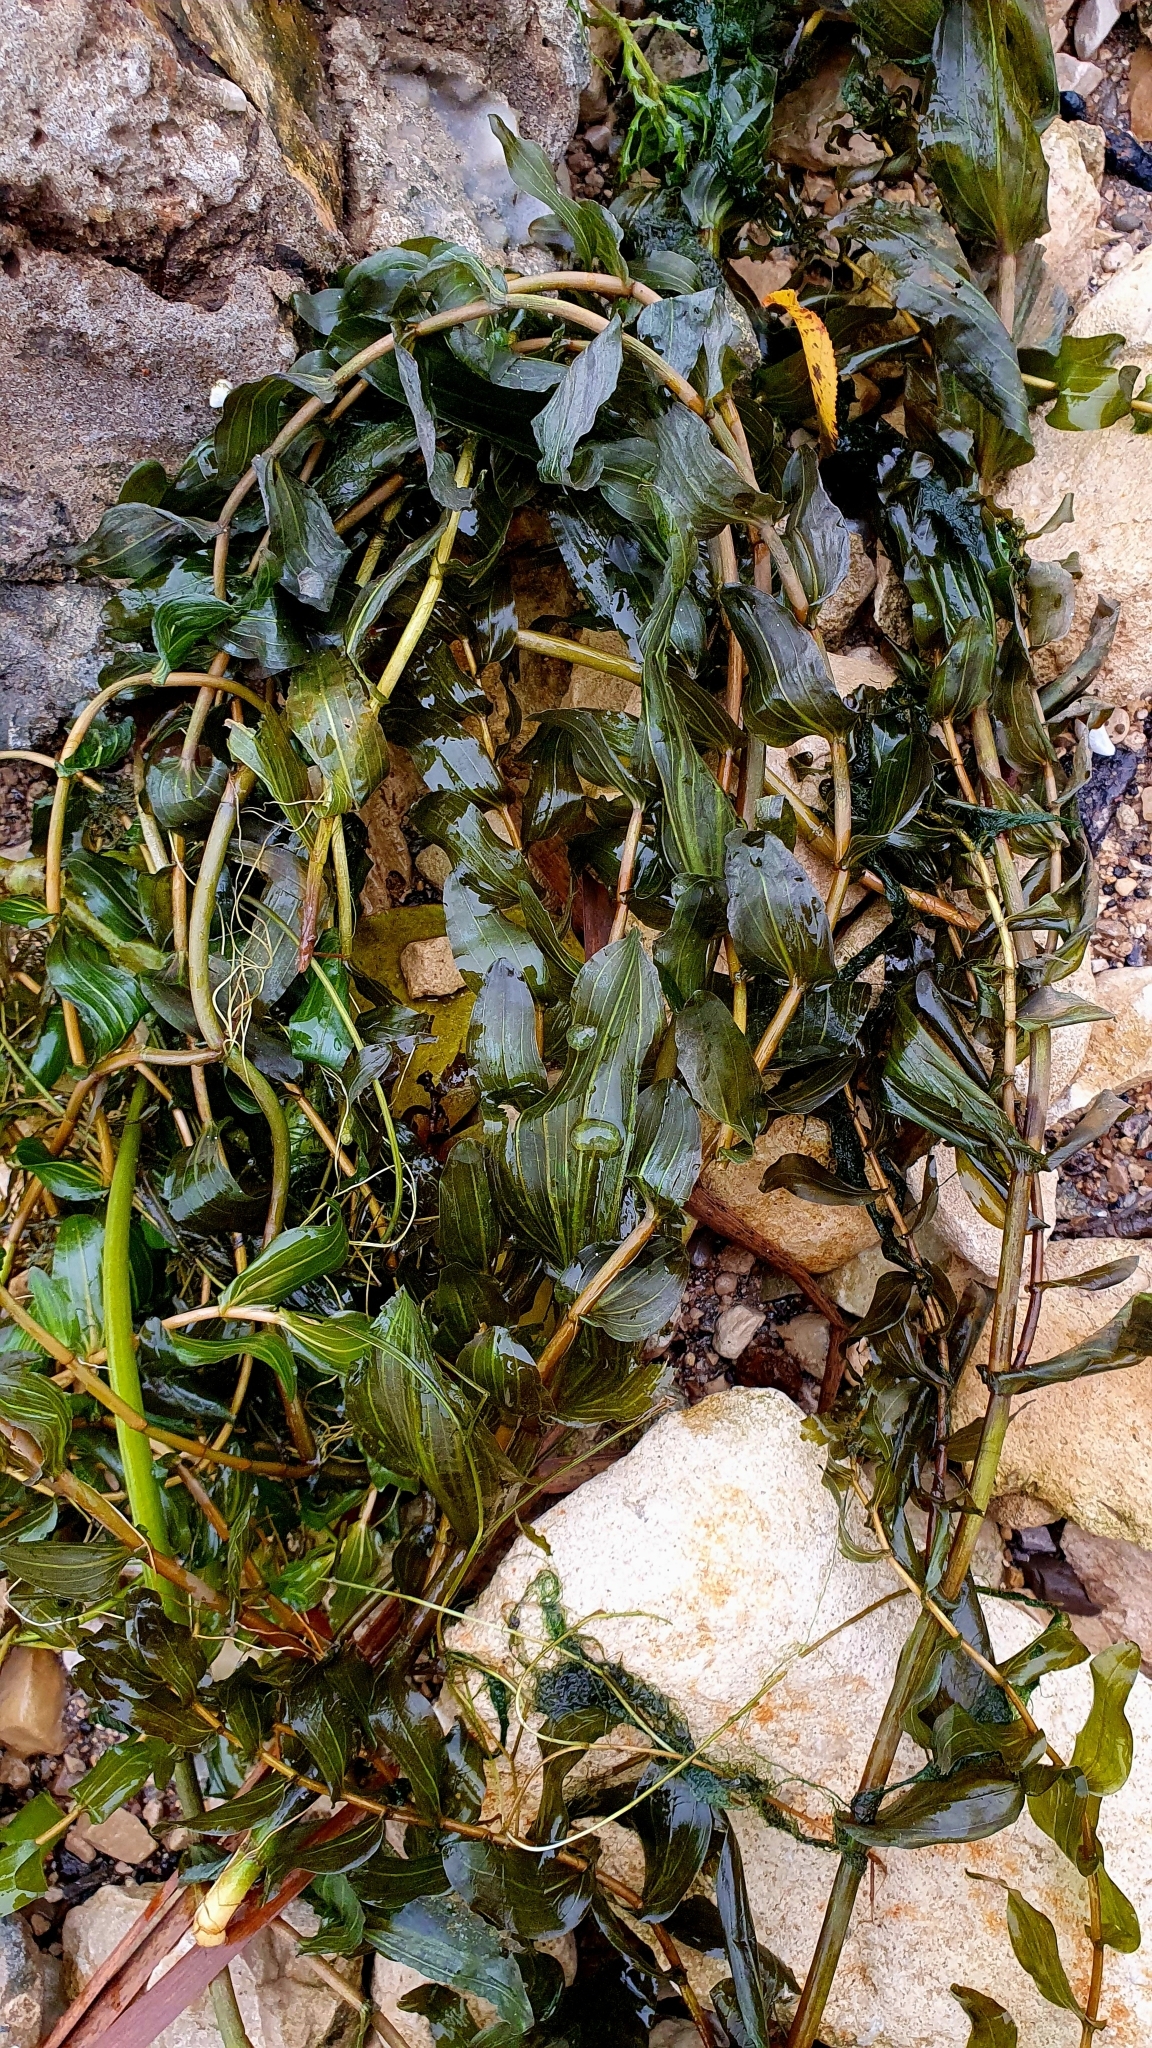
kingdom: Plantae
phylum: Tracheophyta
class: Liliopsida
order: Alismatales
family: Potamogetonaceae
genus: Potamogeton
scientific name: Potamogeton perfoliatus
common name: Perfoliate pondweed
